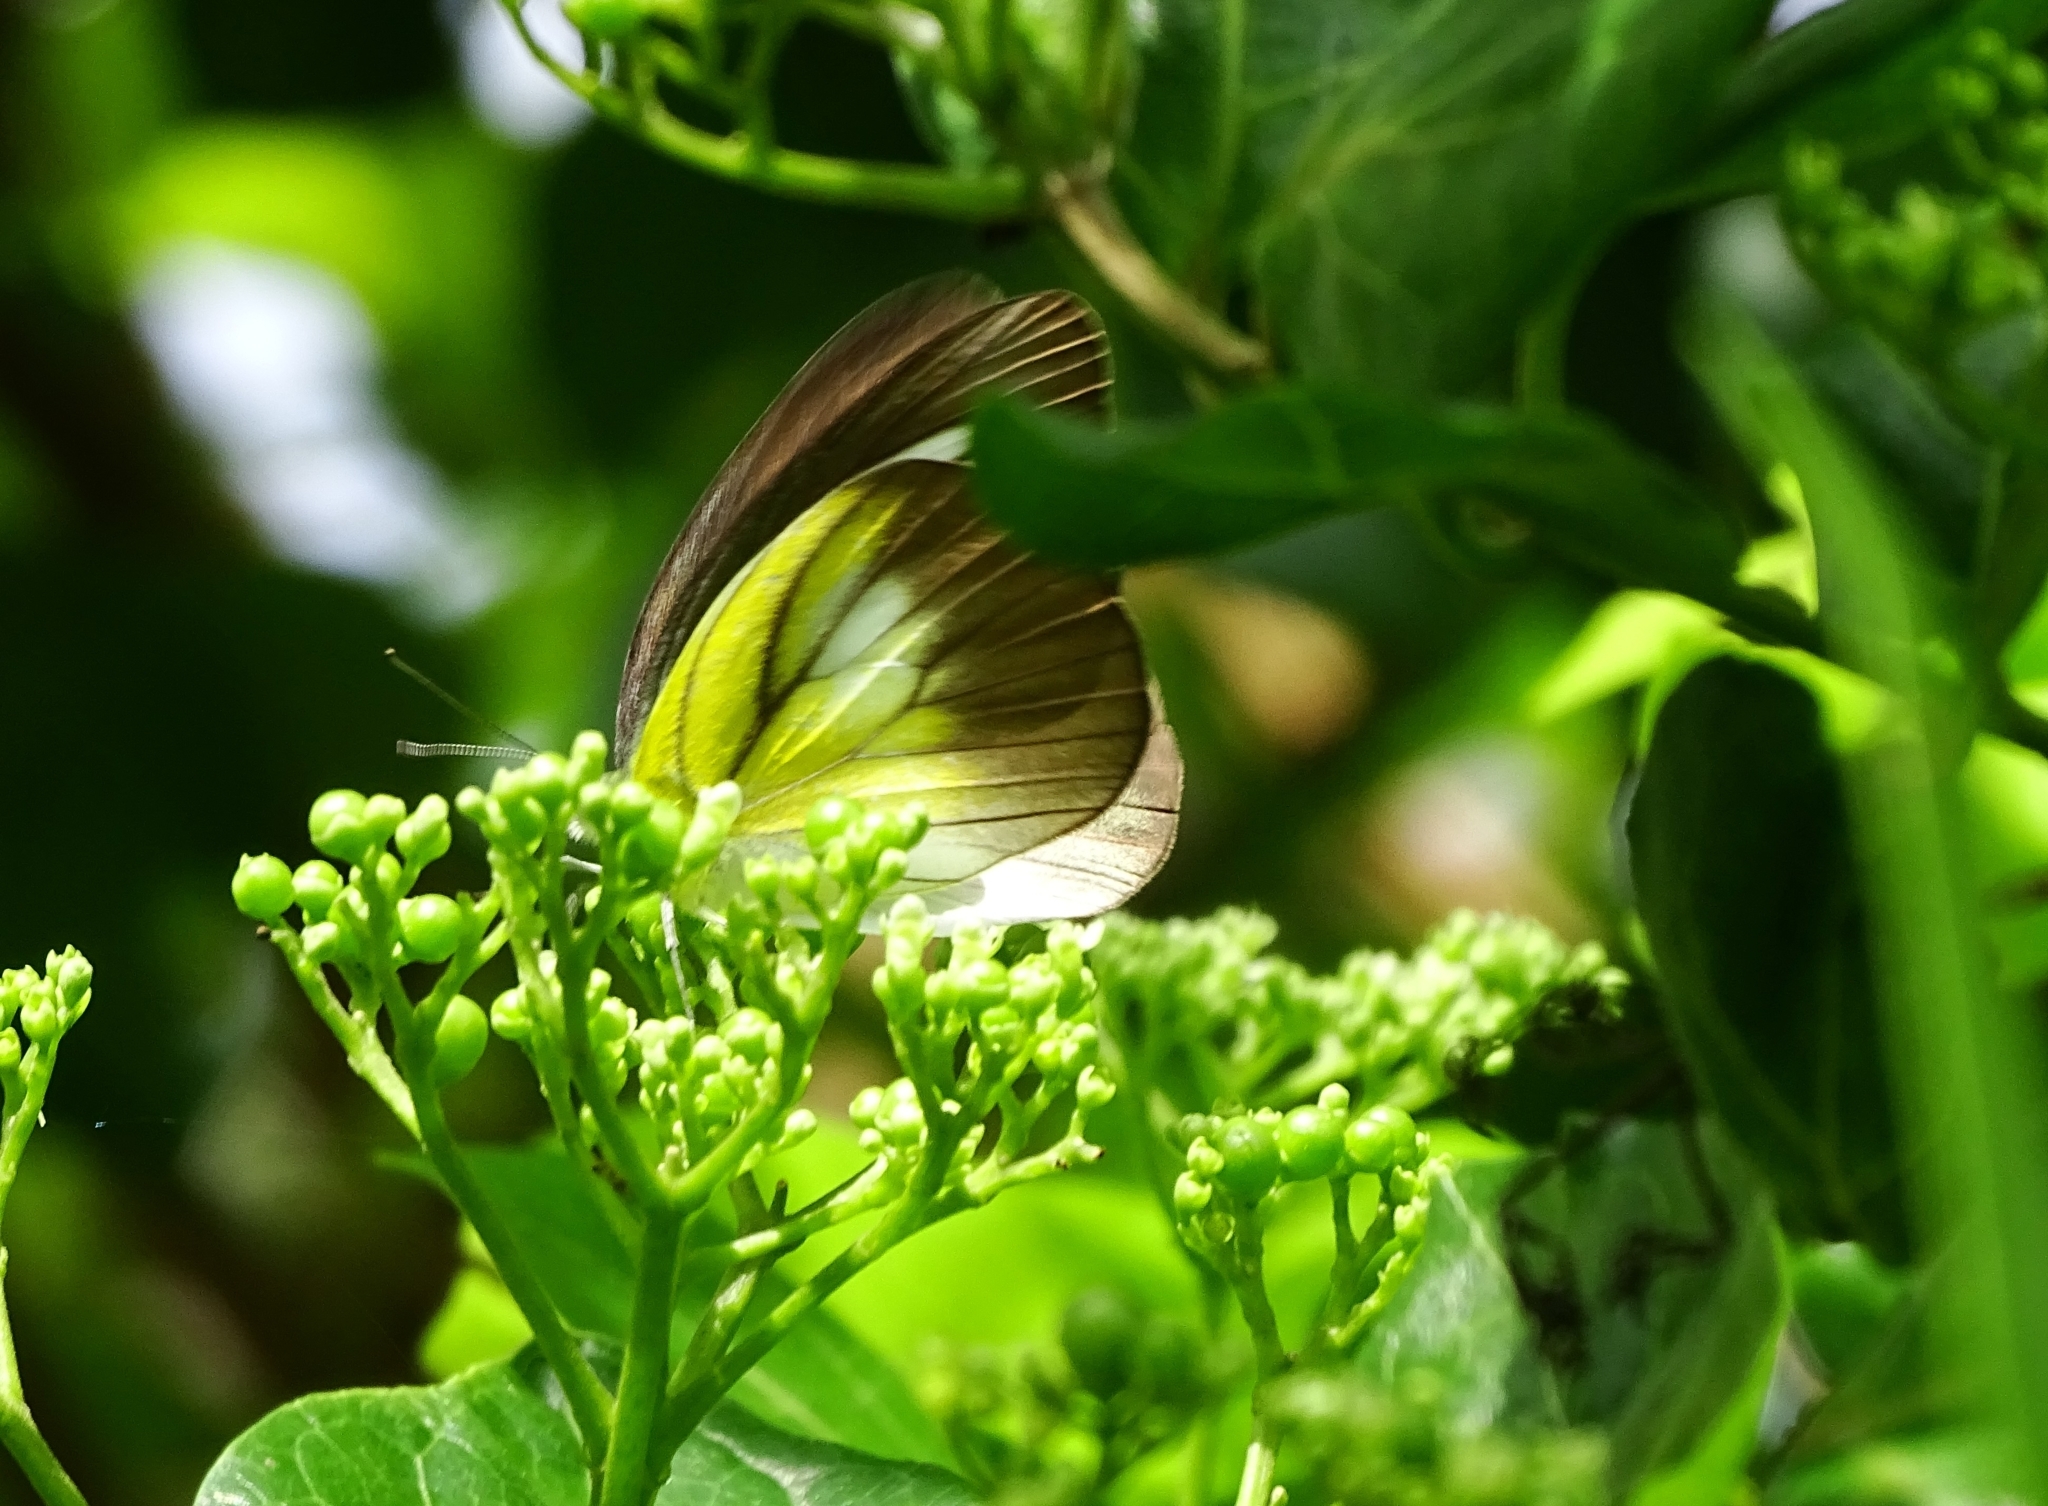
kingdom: Animalia
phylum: Arthropoda
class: Insecta
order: Lepidoptera
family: Pieridae
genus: Appias
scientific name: Appias lyncida
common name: Chocolate albatross
